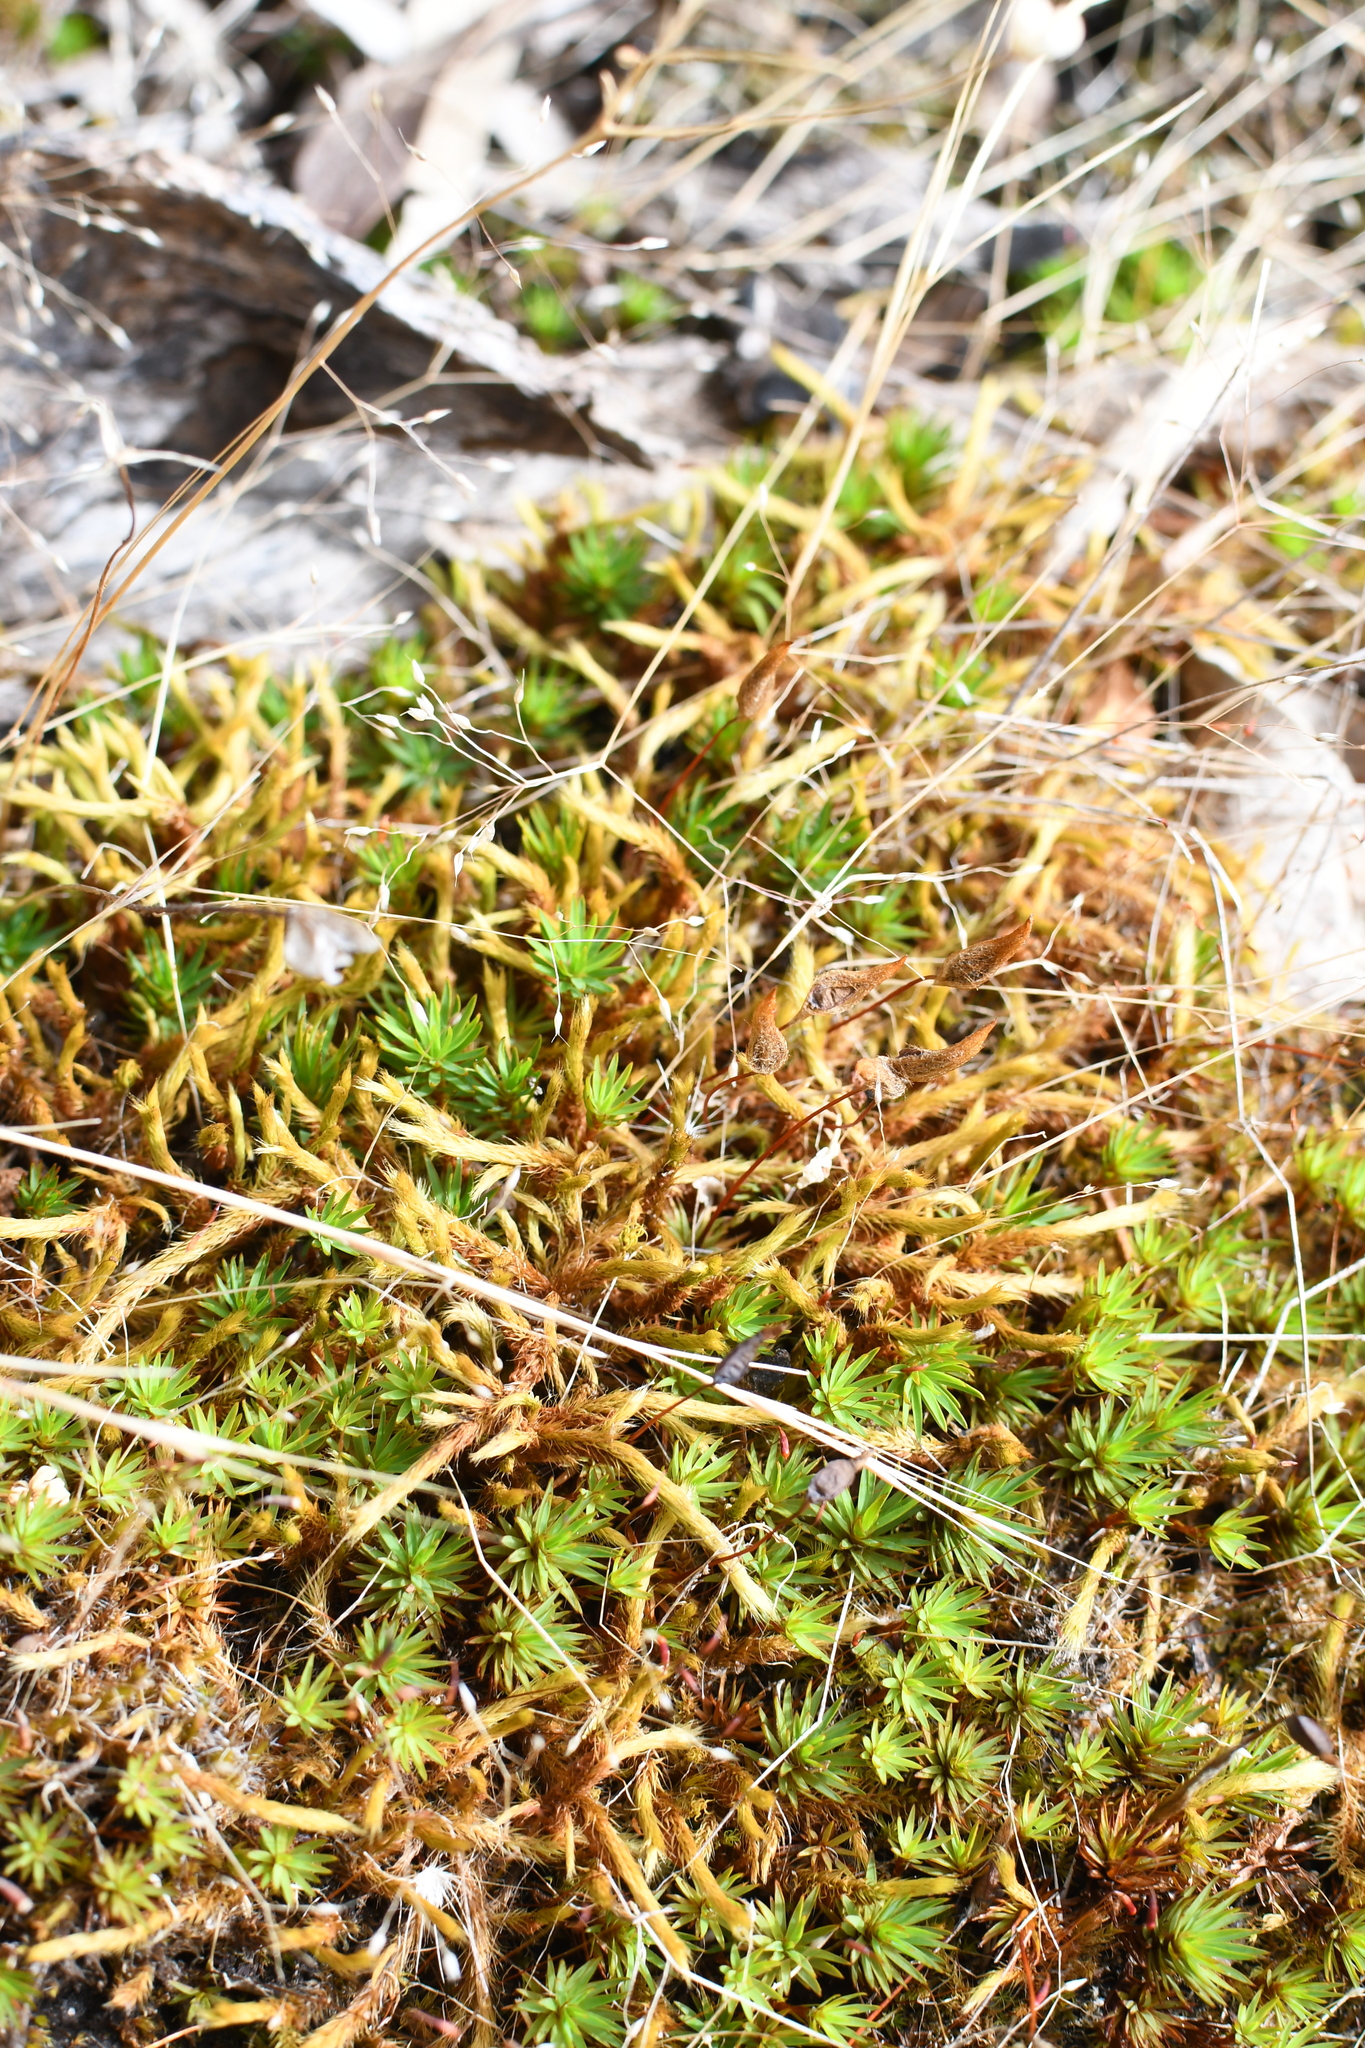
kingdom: Plantae
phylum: Bryophyta
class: Polytrichopsida
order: Polytrichales
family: Polytrichaceae
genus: Dawsonia
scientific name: Dawsonia longiseta
